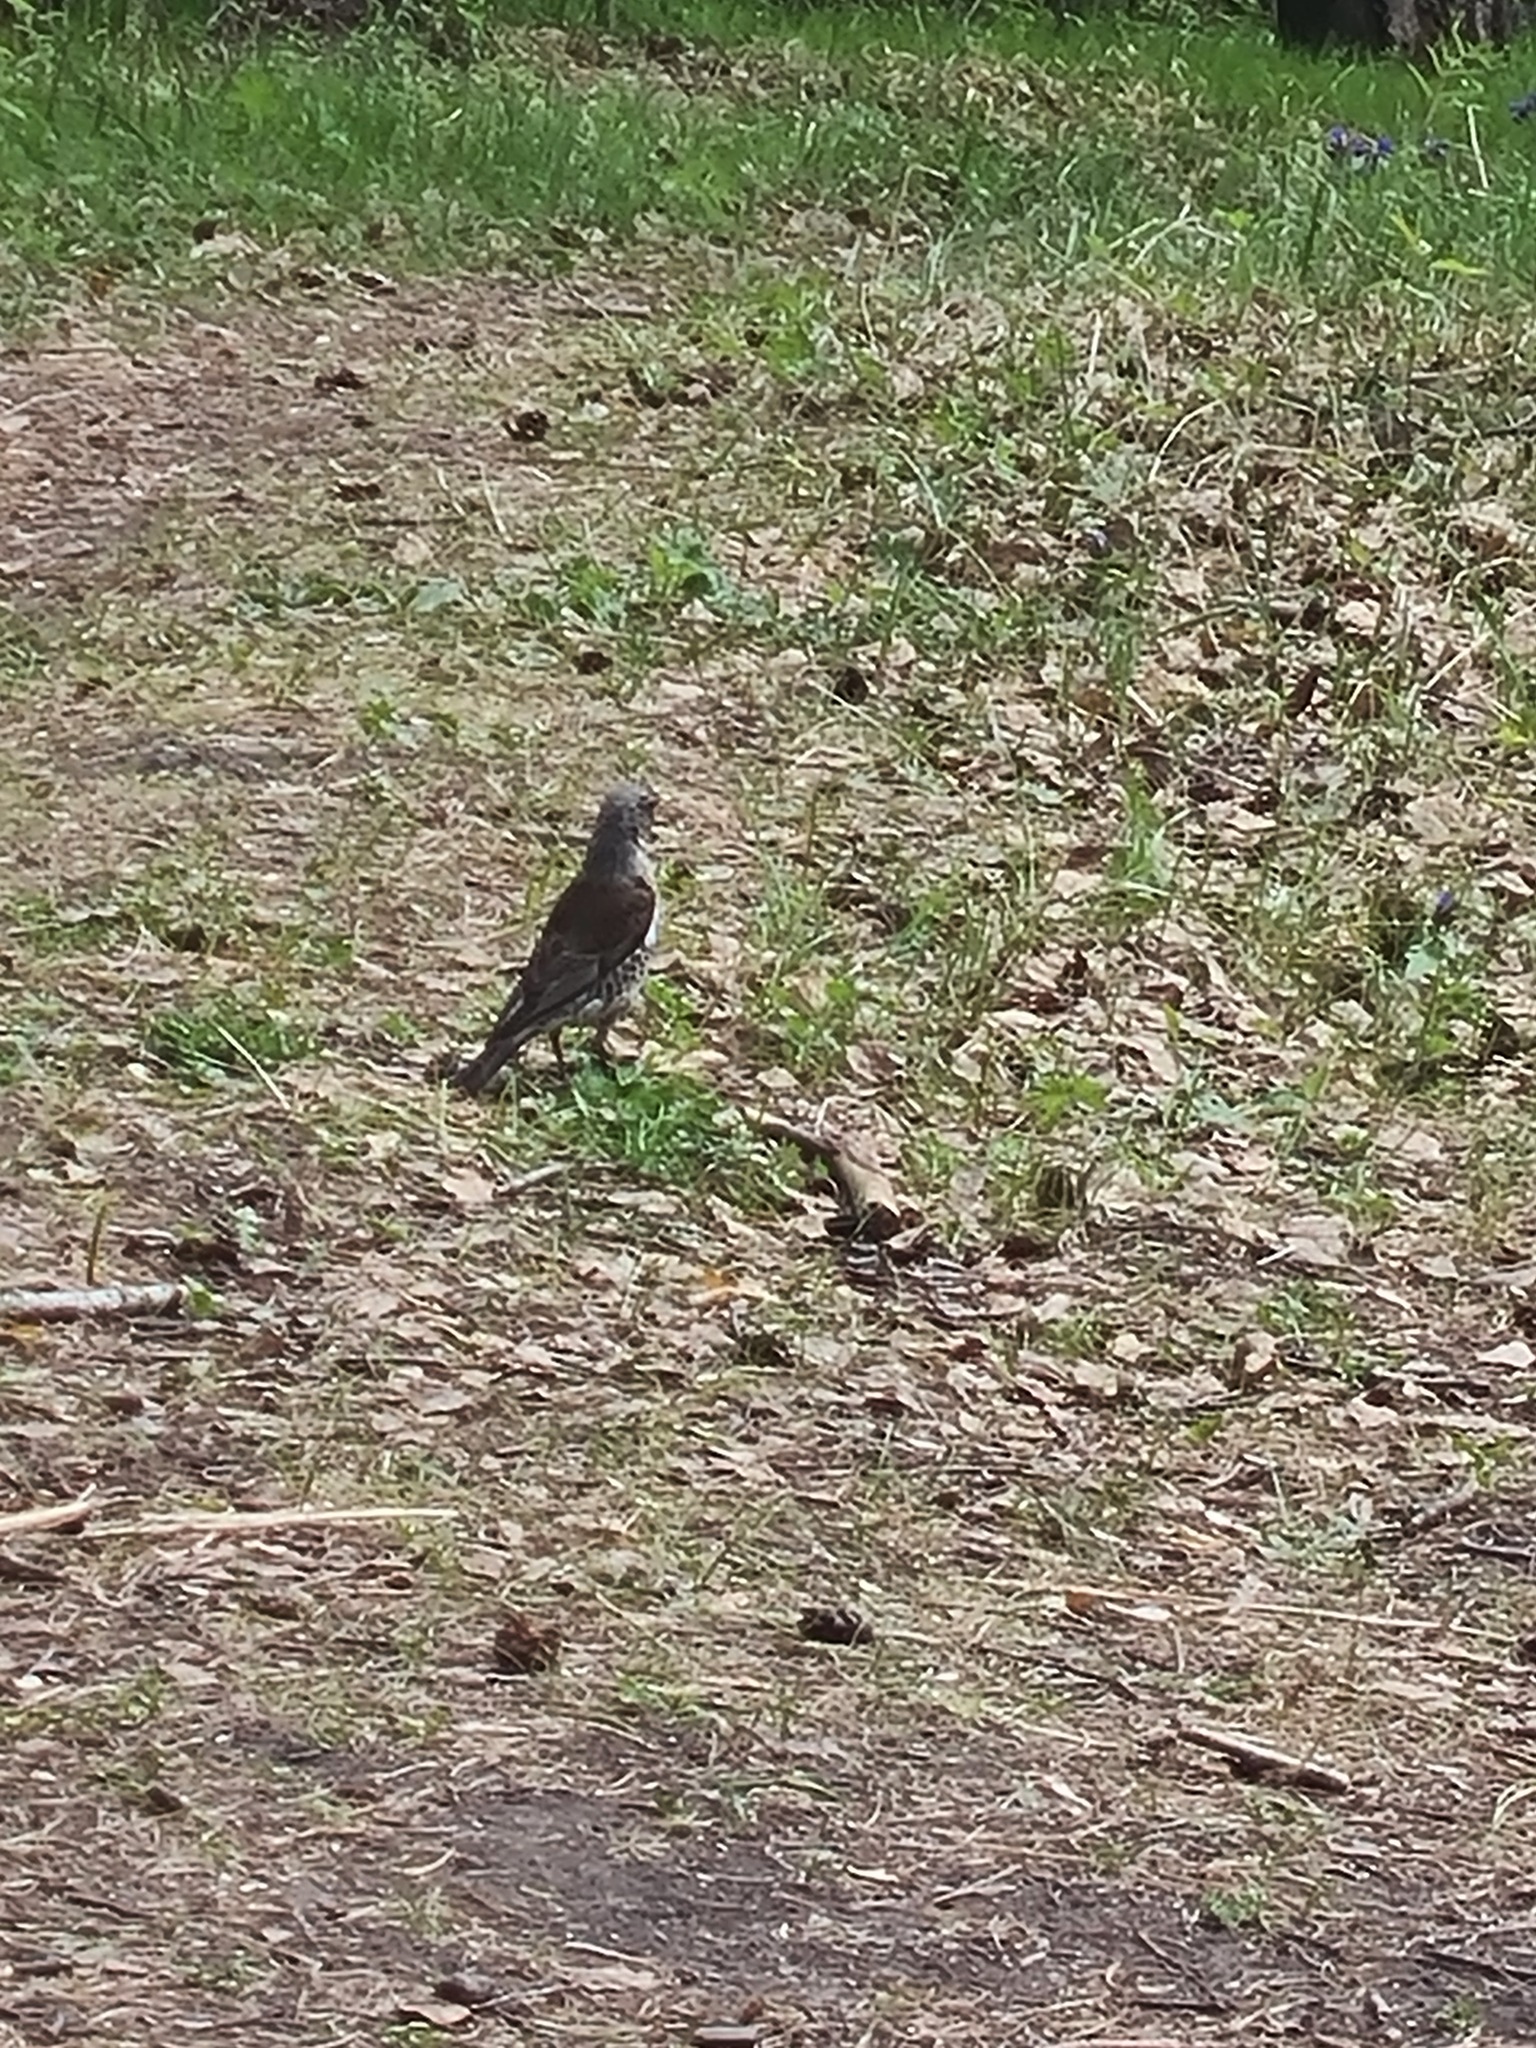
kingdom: Animalia
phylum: Chordata
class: Aves
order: Passeriformes
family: Turdidae
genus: Turdus
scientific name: Turdus pilaris
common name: Fieldfare
